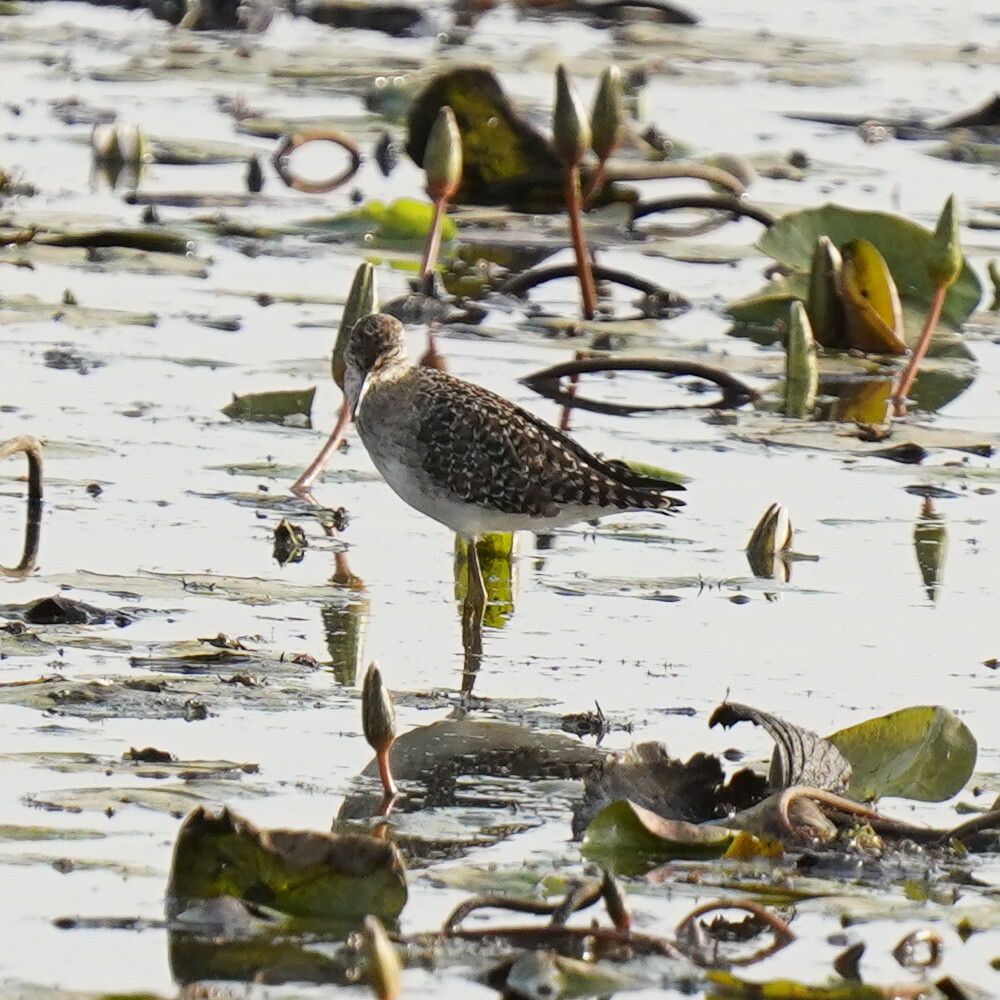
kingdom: Animalia
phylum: Chordata
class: Aves
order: Charadriiformes
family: Scolopacidae
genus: Tringa
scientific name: Tringa glareola
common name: Wood sandpiper
